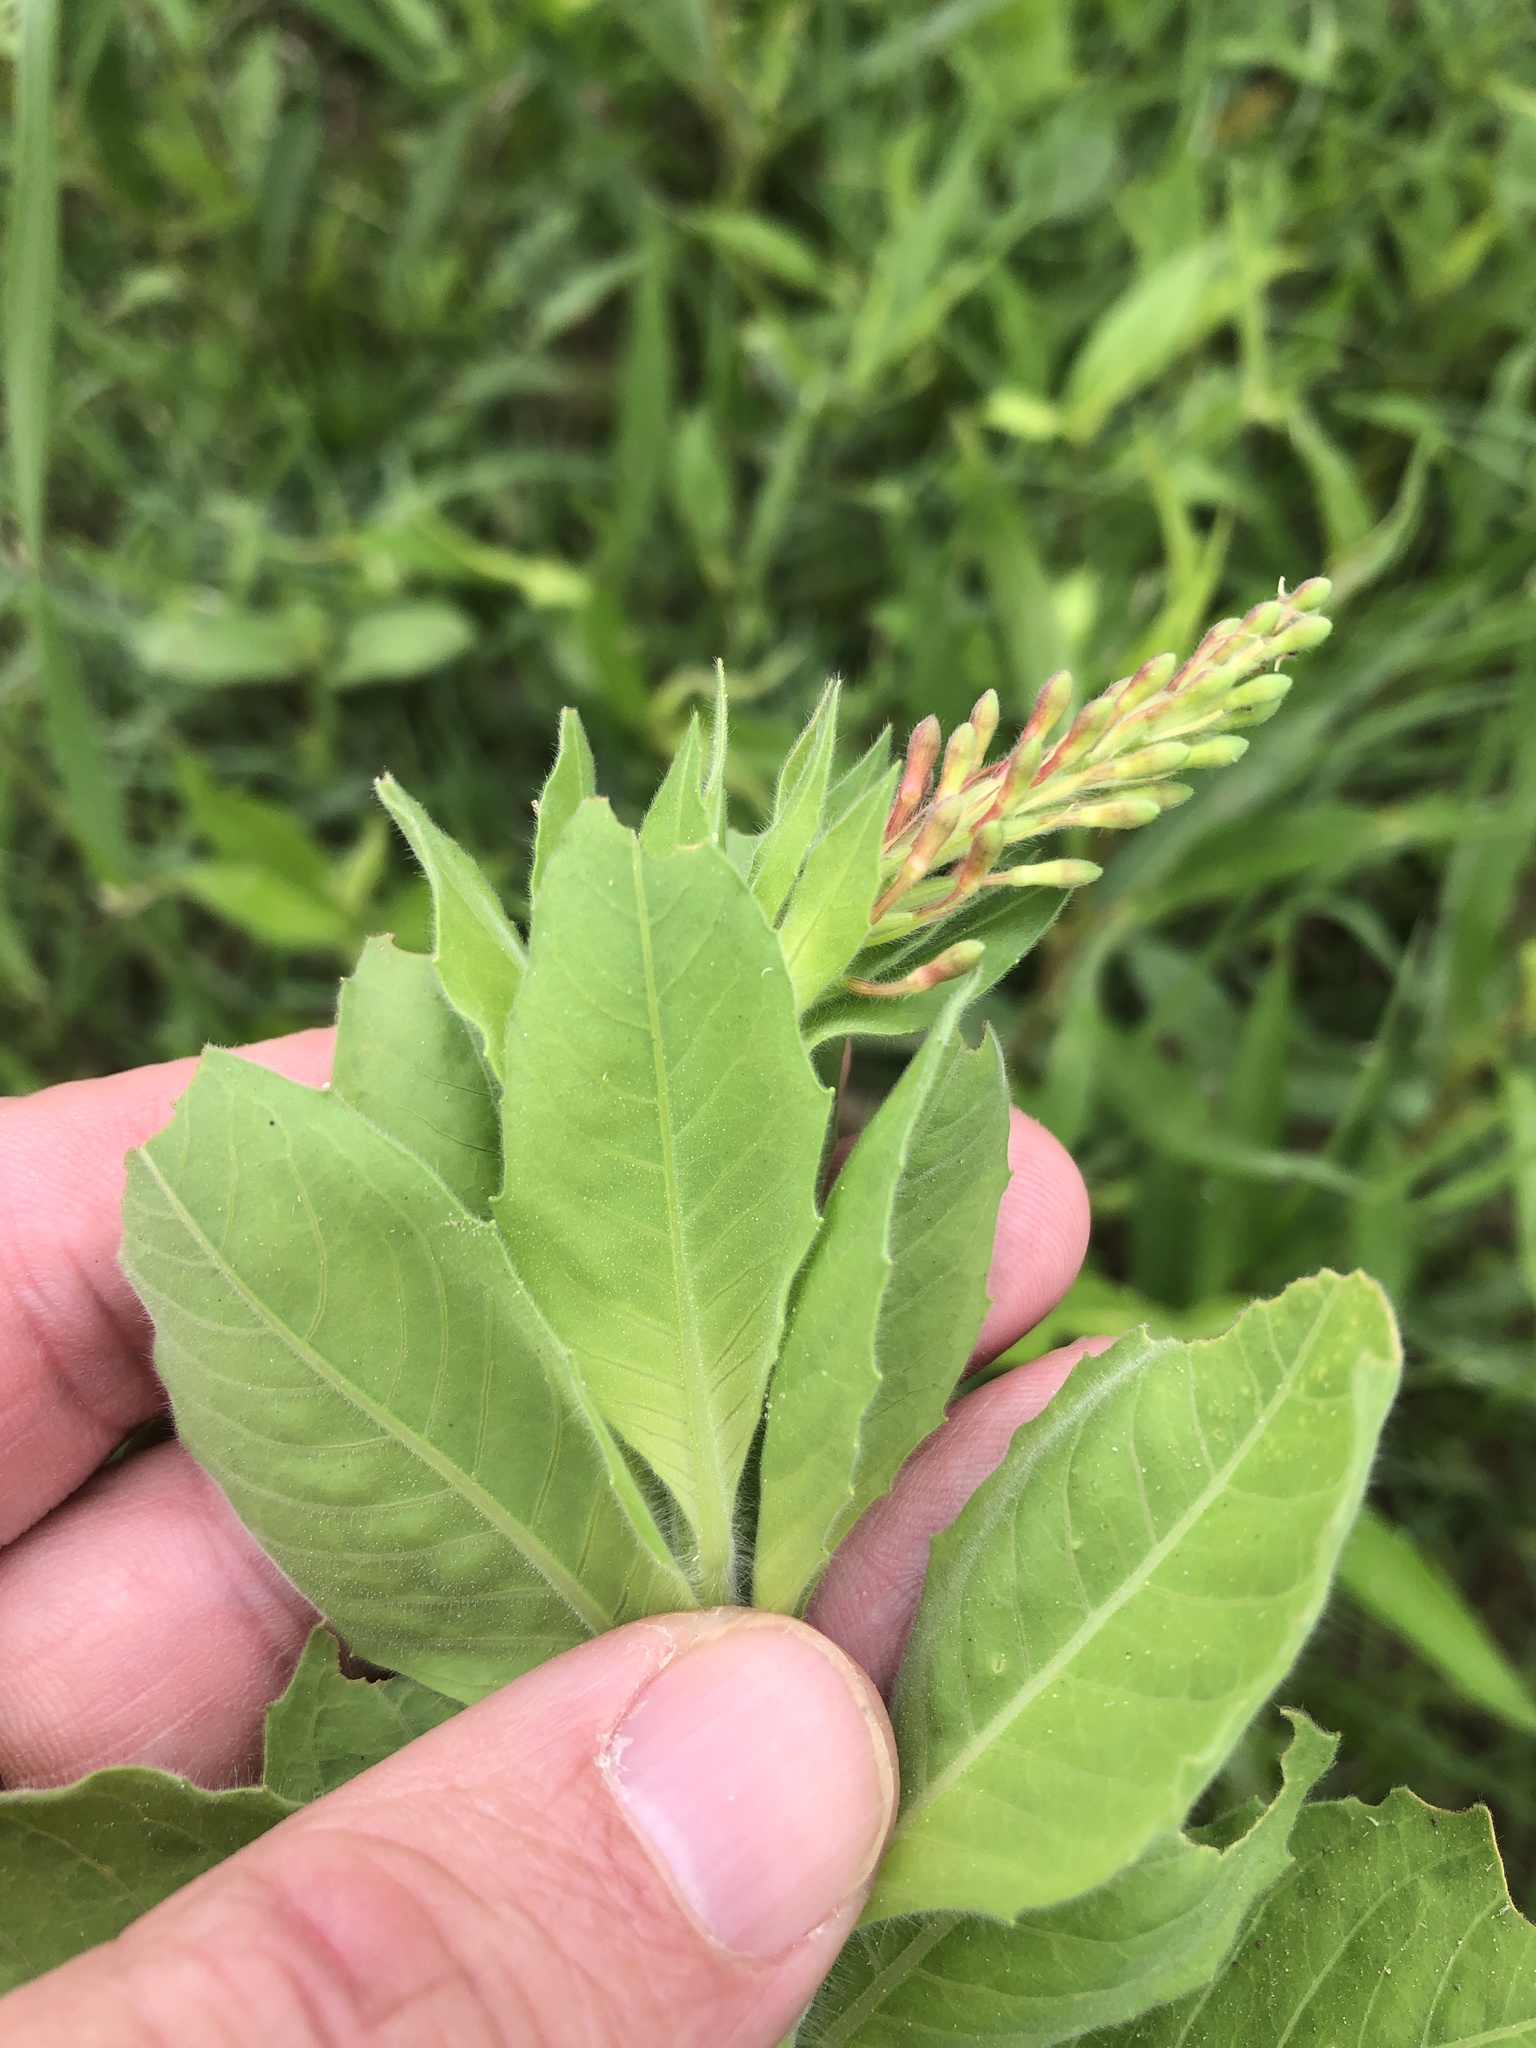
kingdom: Plantae
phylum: Tracheophyta
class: Magnoliopsida
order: Myrtales
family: Onagraceae
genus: Oenothera
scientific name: Oenothera curtiflora
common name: Velvetweed
